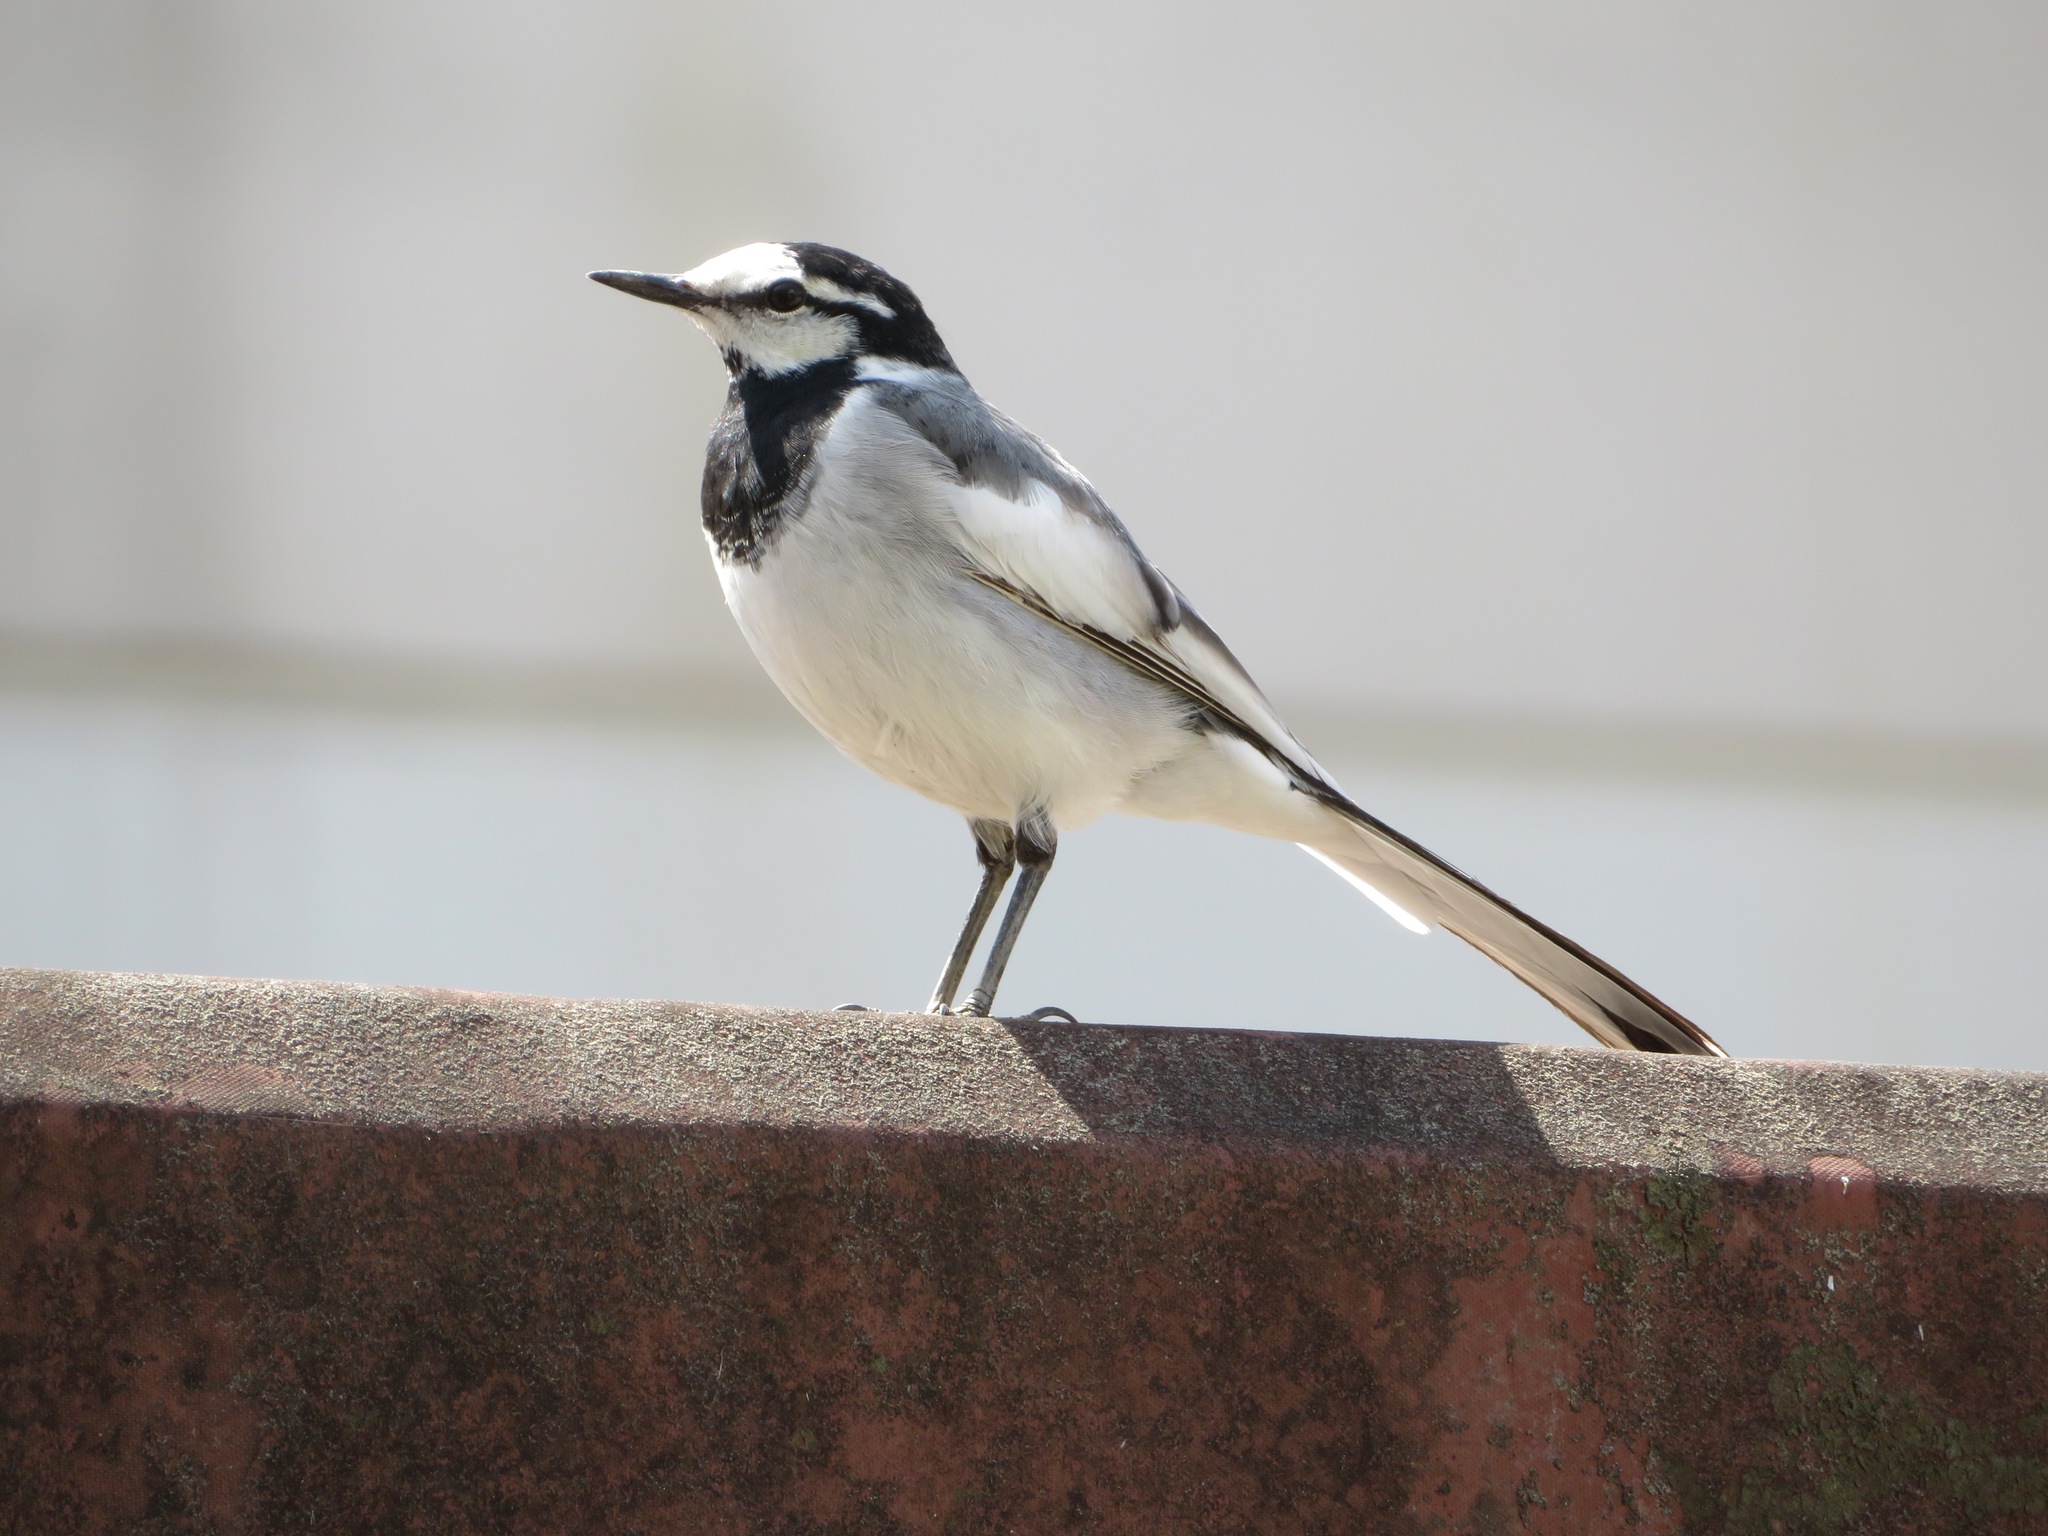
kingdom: Animalia
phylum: Chordata
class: Aves
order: Passeriformes
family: Motacillidae
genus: Motacilla
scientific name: Motacilla alba
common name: White wagtail
